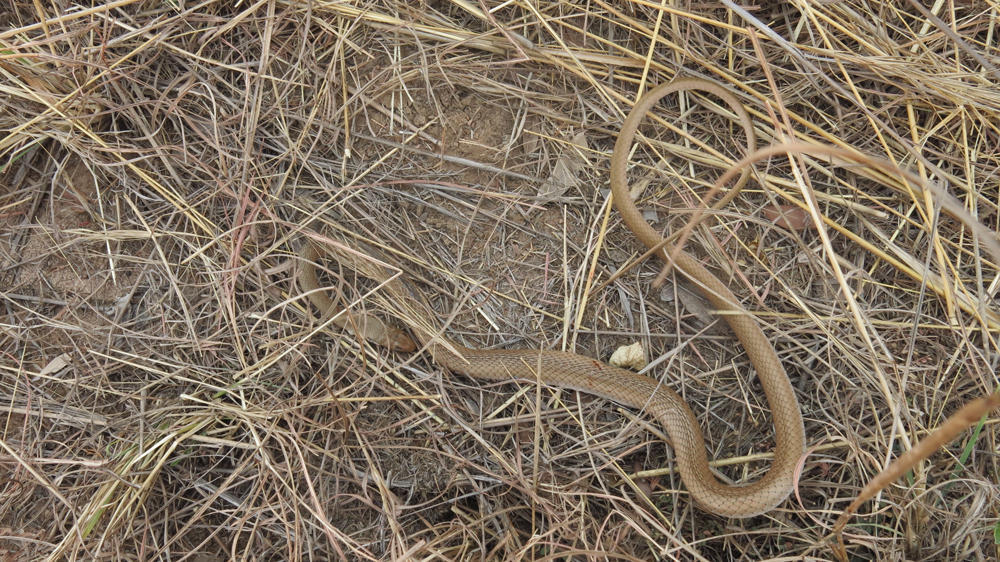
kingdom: Animalia
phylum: Chordata
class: Squamata
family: Psammophiidae
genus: Psammophis
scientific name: Psammophis brevirostris
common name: Short-snouted grass snake
